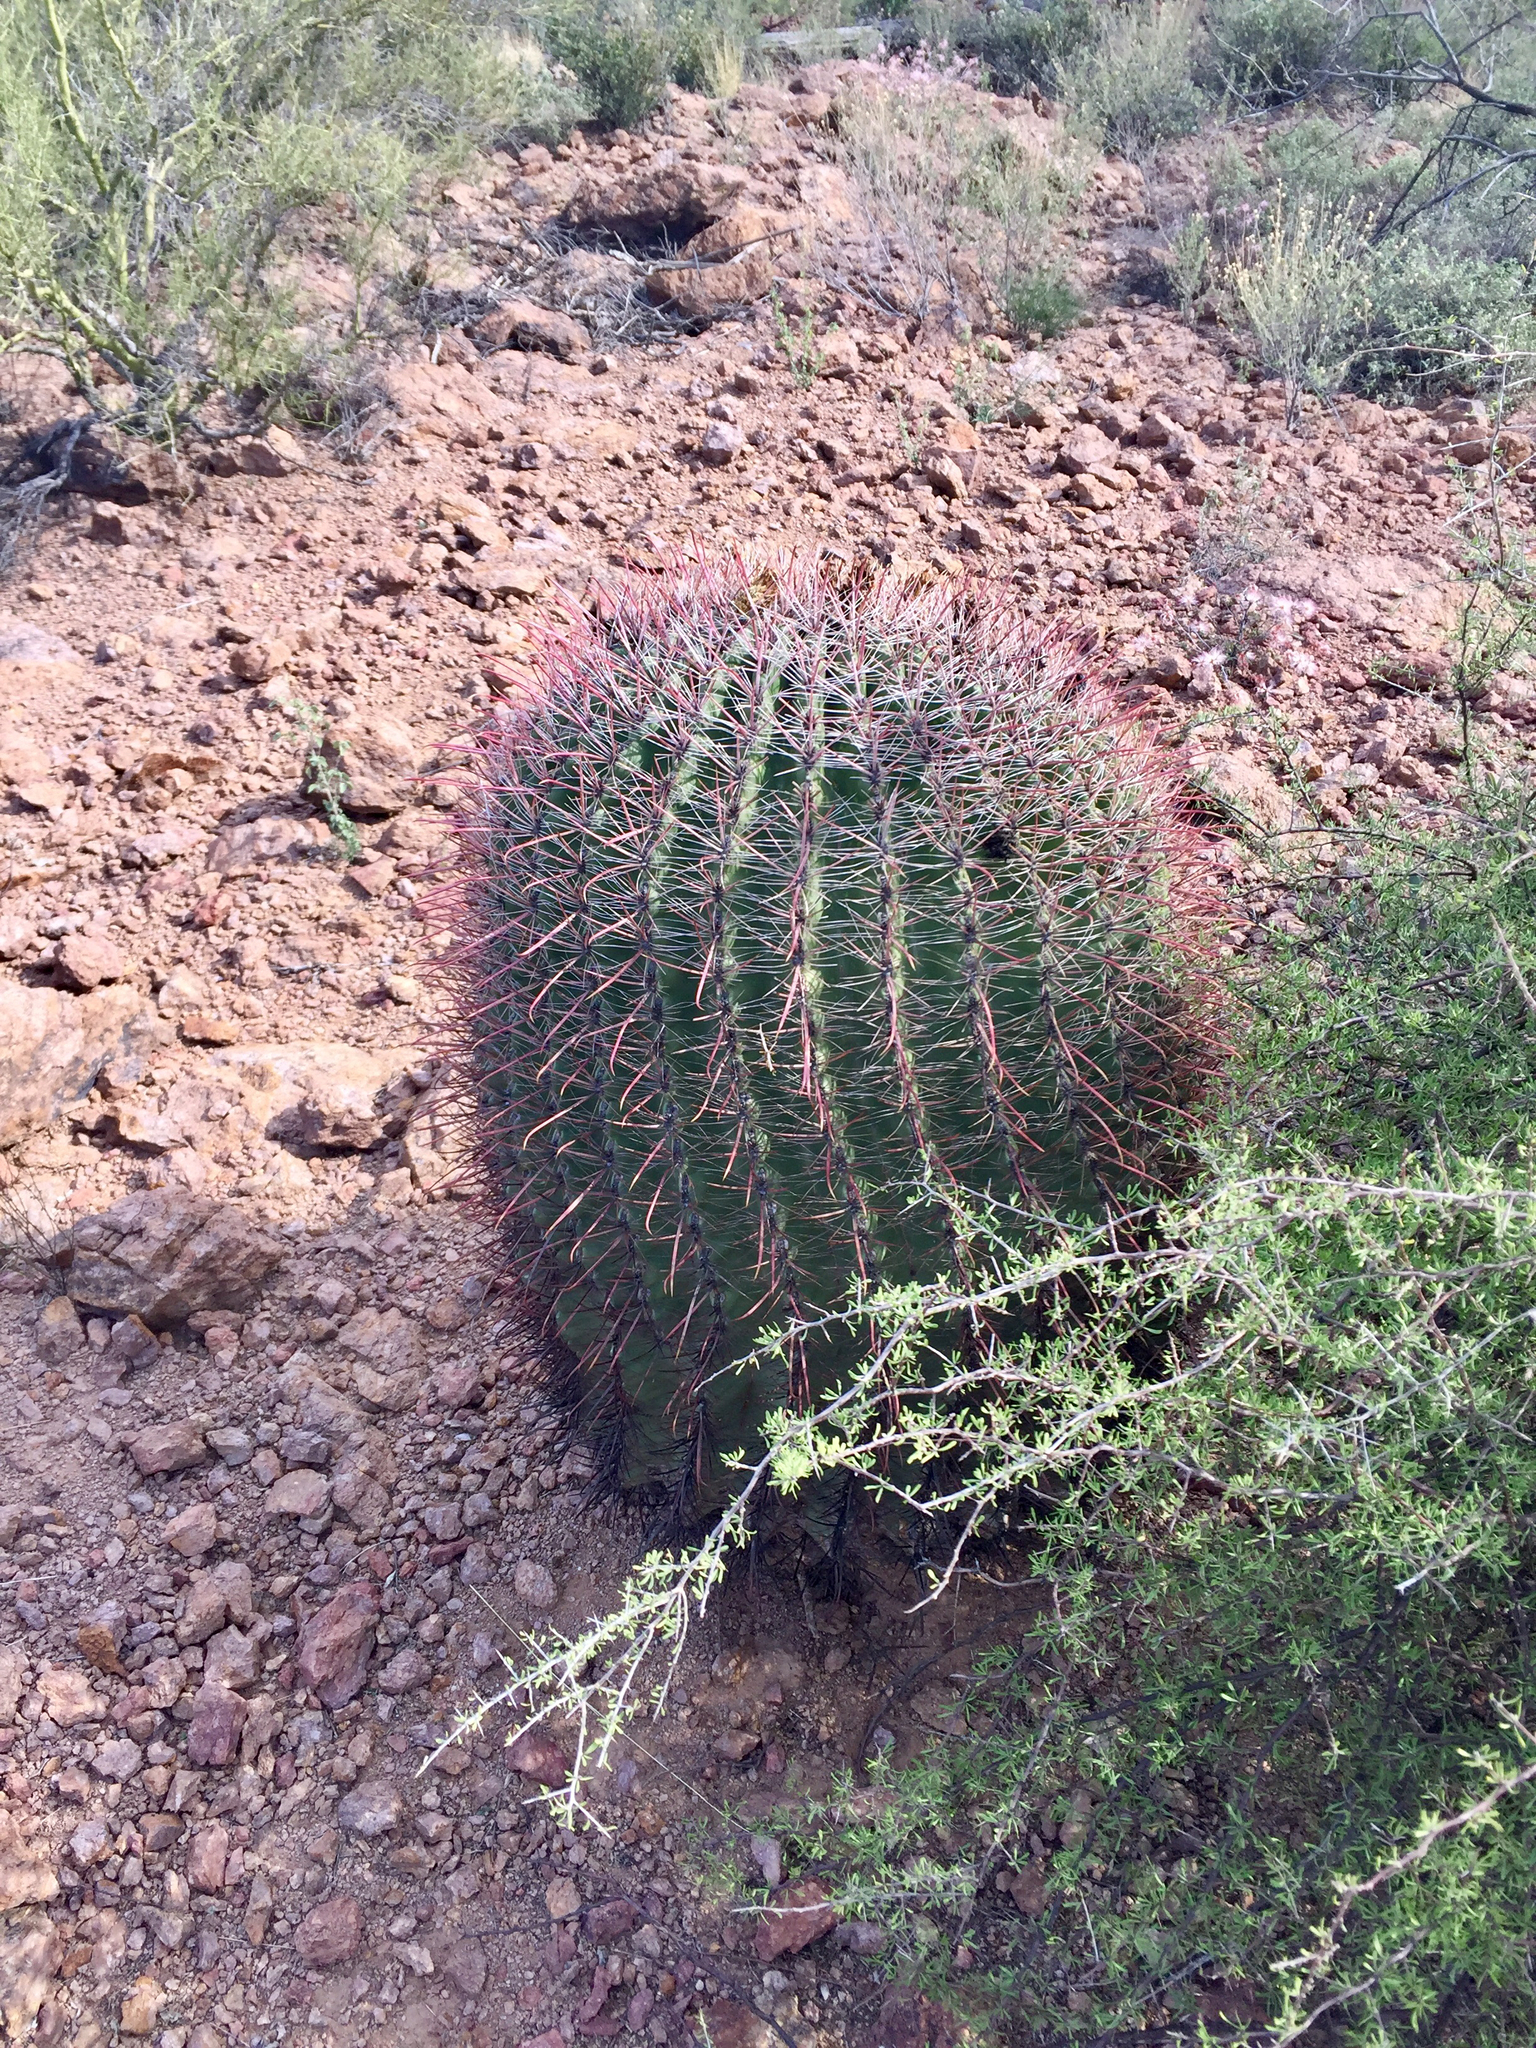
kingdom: Plantae
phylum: Tracheophyta
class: Magnoliopsida
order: Caryophyllales
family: Cactaceae
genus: Ferocactus
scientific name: Ferocactus wislizeni
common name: Candy barrel cactus
